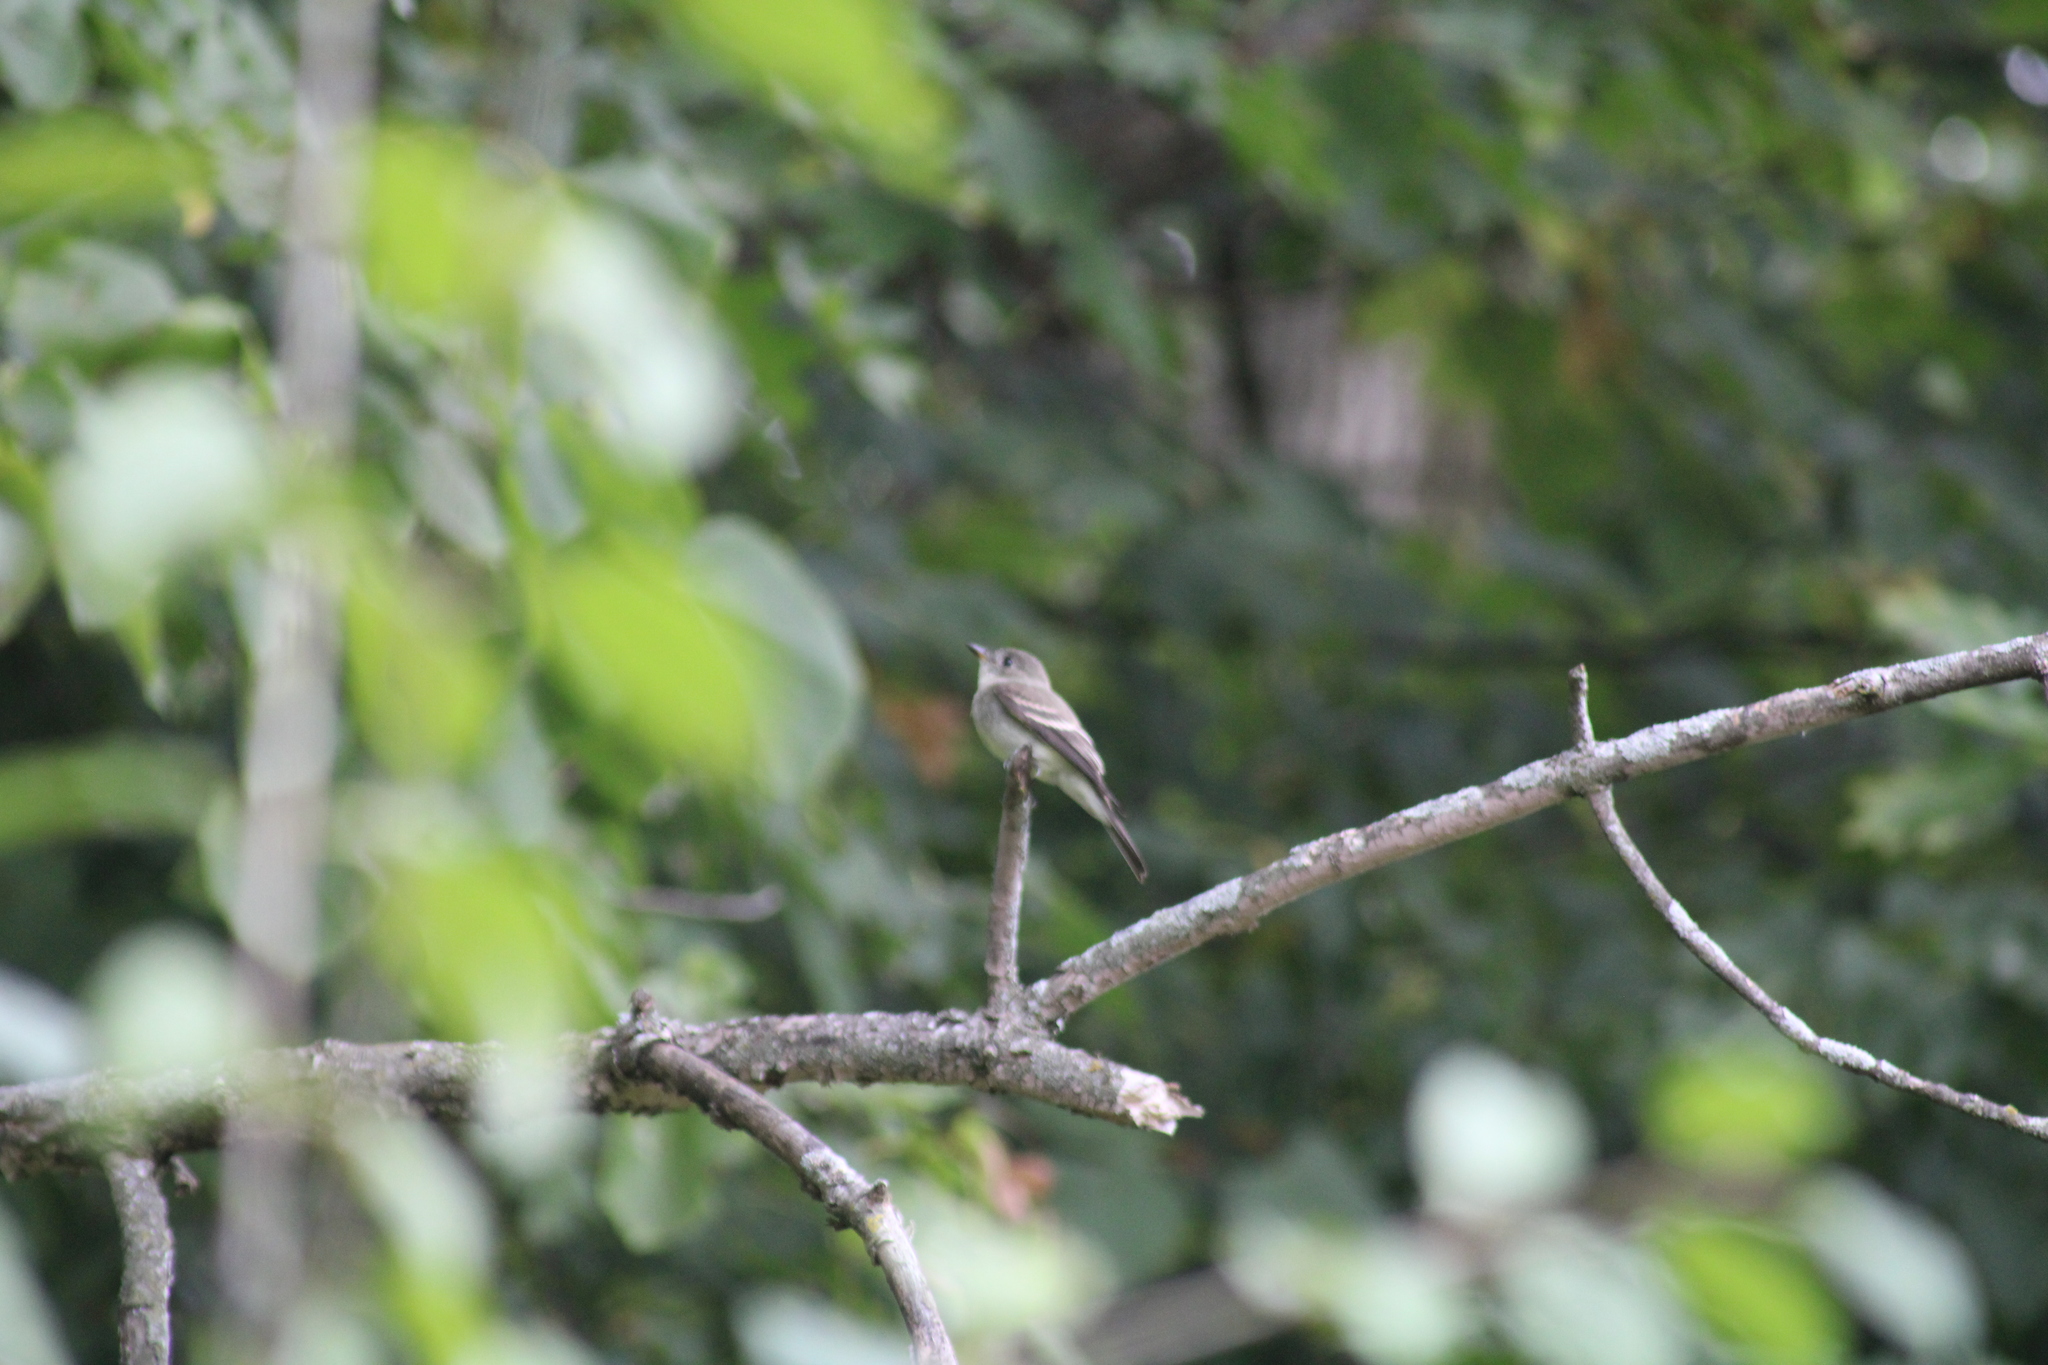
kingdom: Animalia
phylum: Chordata
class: Aves
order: Passeriformes
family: Tyrannidae
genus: Contopus
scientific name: Contopus virens
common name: Eastern wood-pewee
